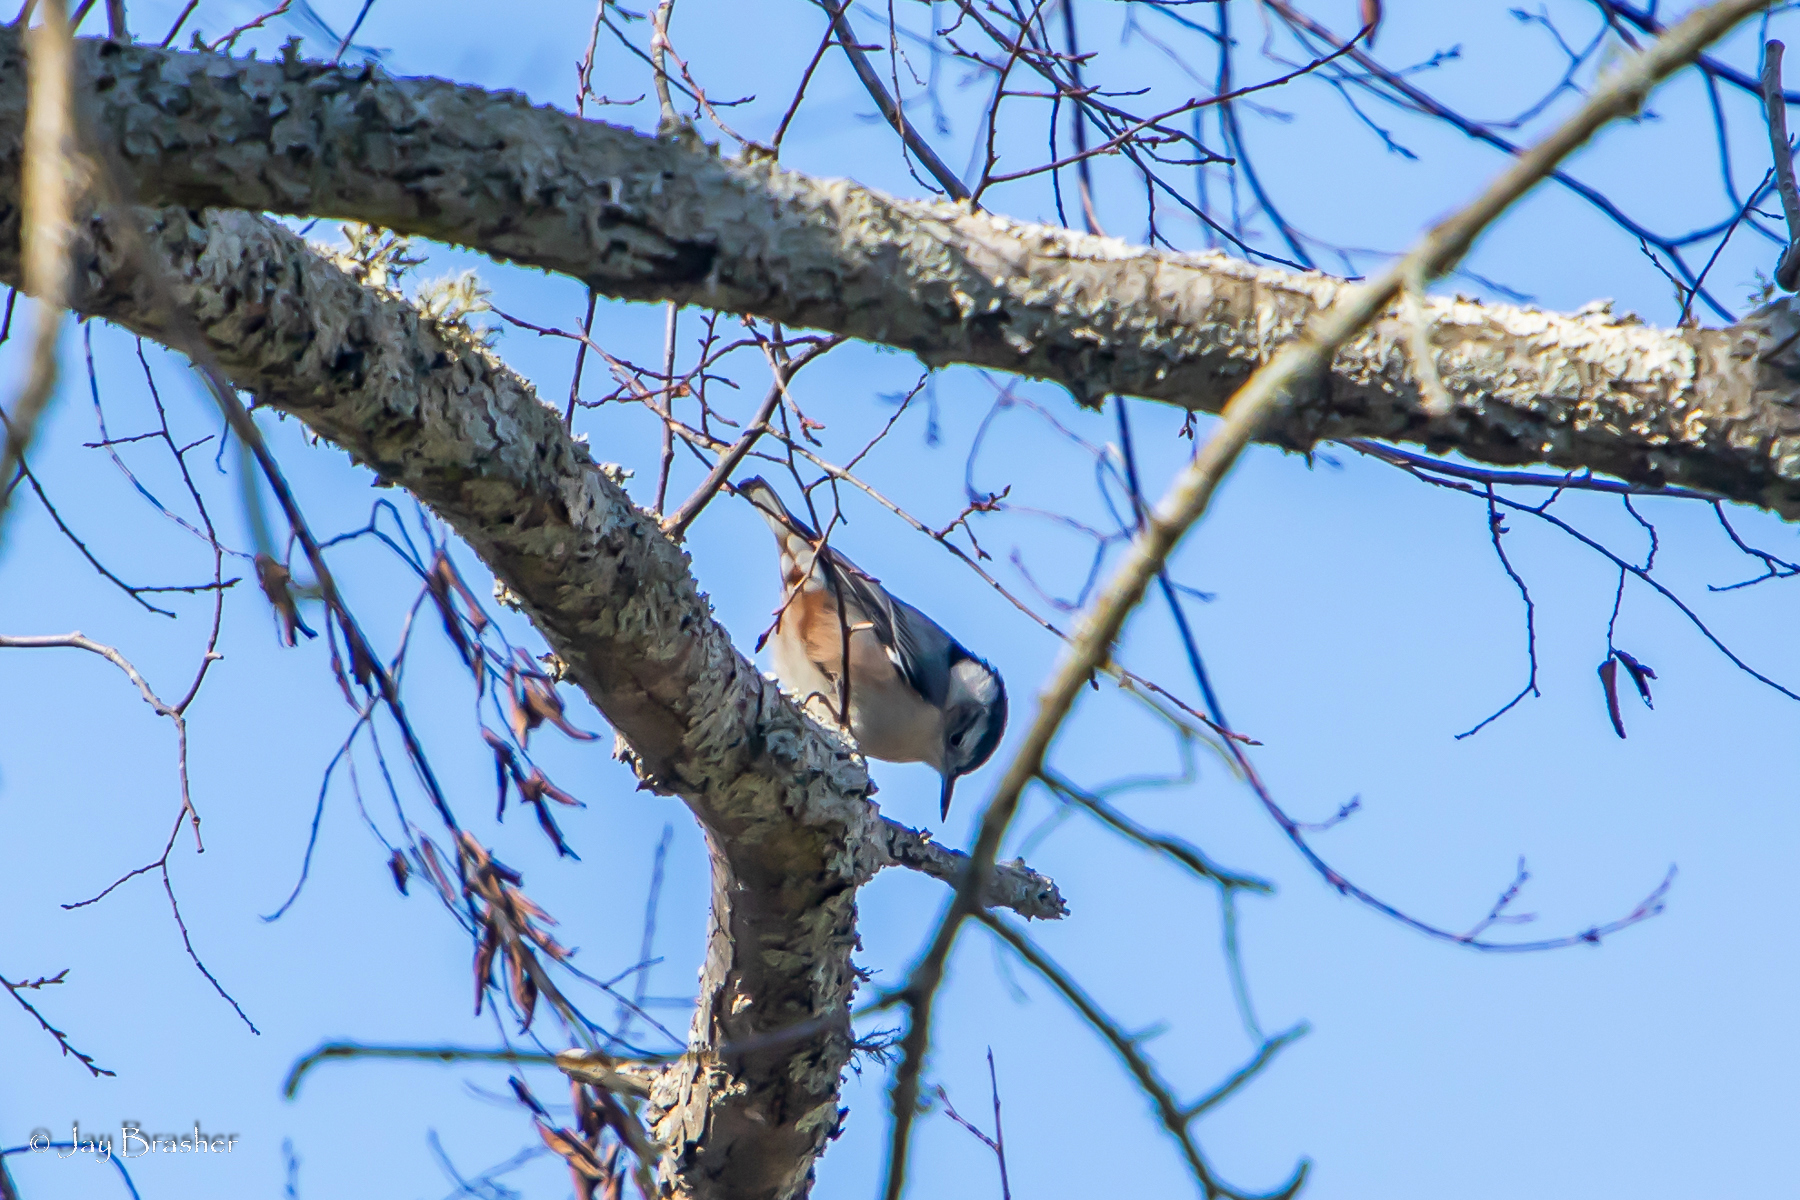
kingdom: Animalia
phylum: Chordata
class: Aves
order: Passeriformes
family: Sittidae
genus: Sitta
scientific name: Sitta carolinensis
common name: White-breasted nuthatch
